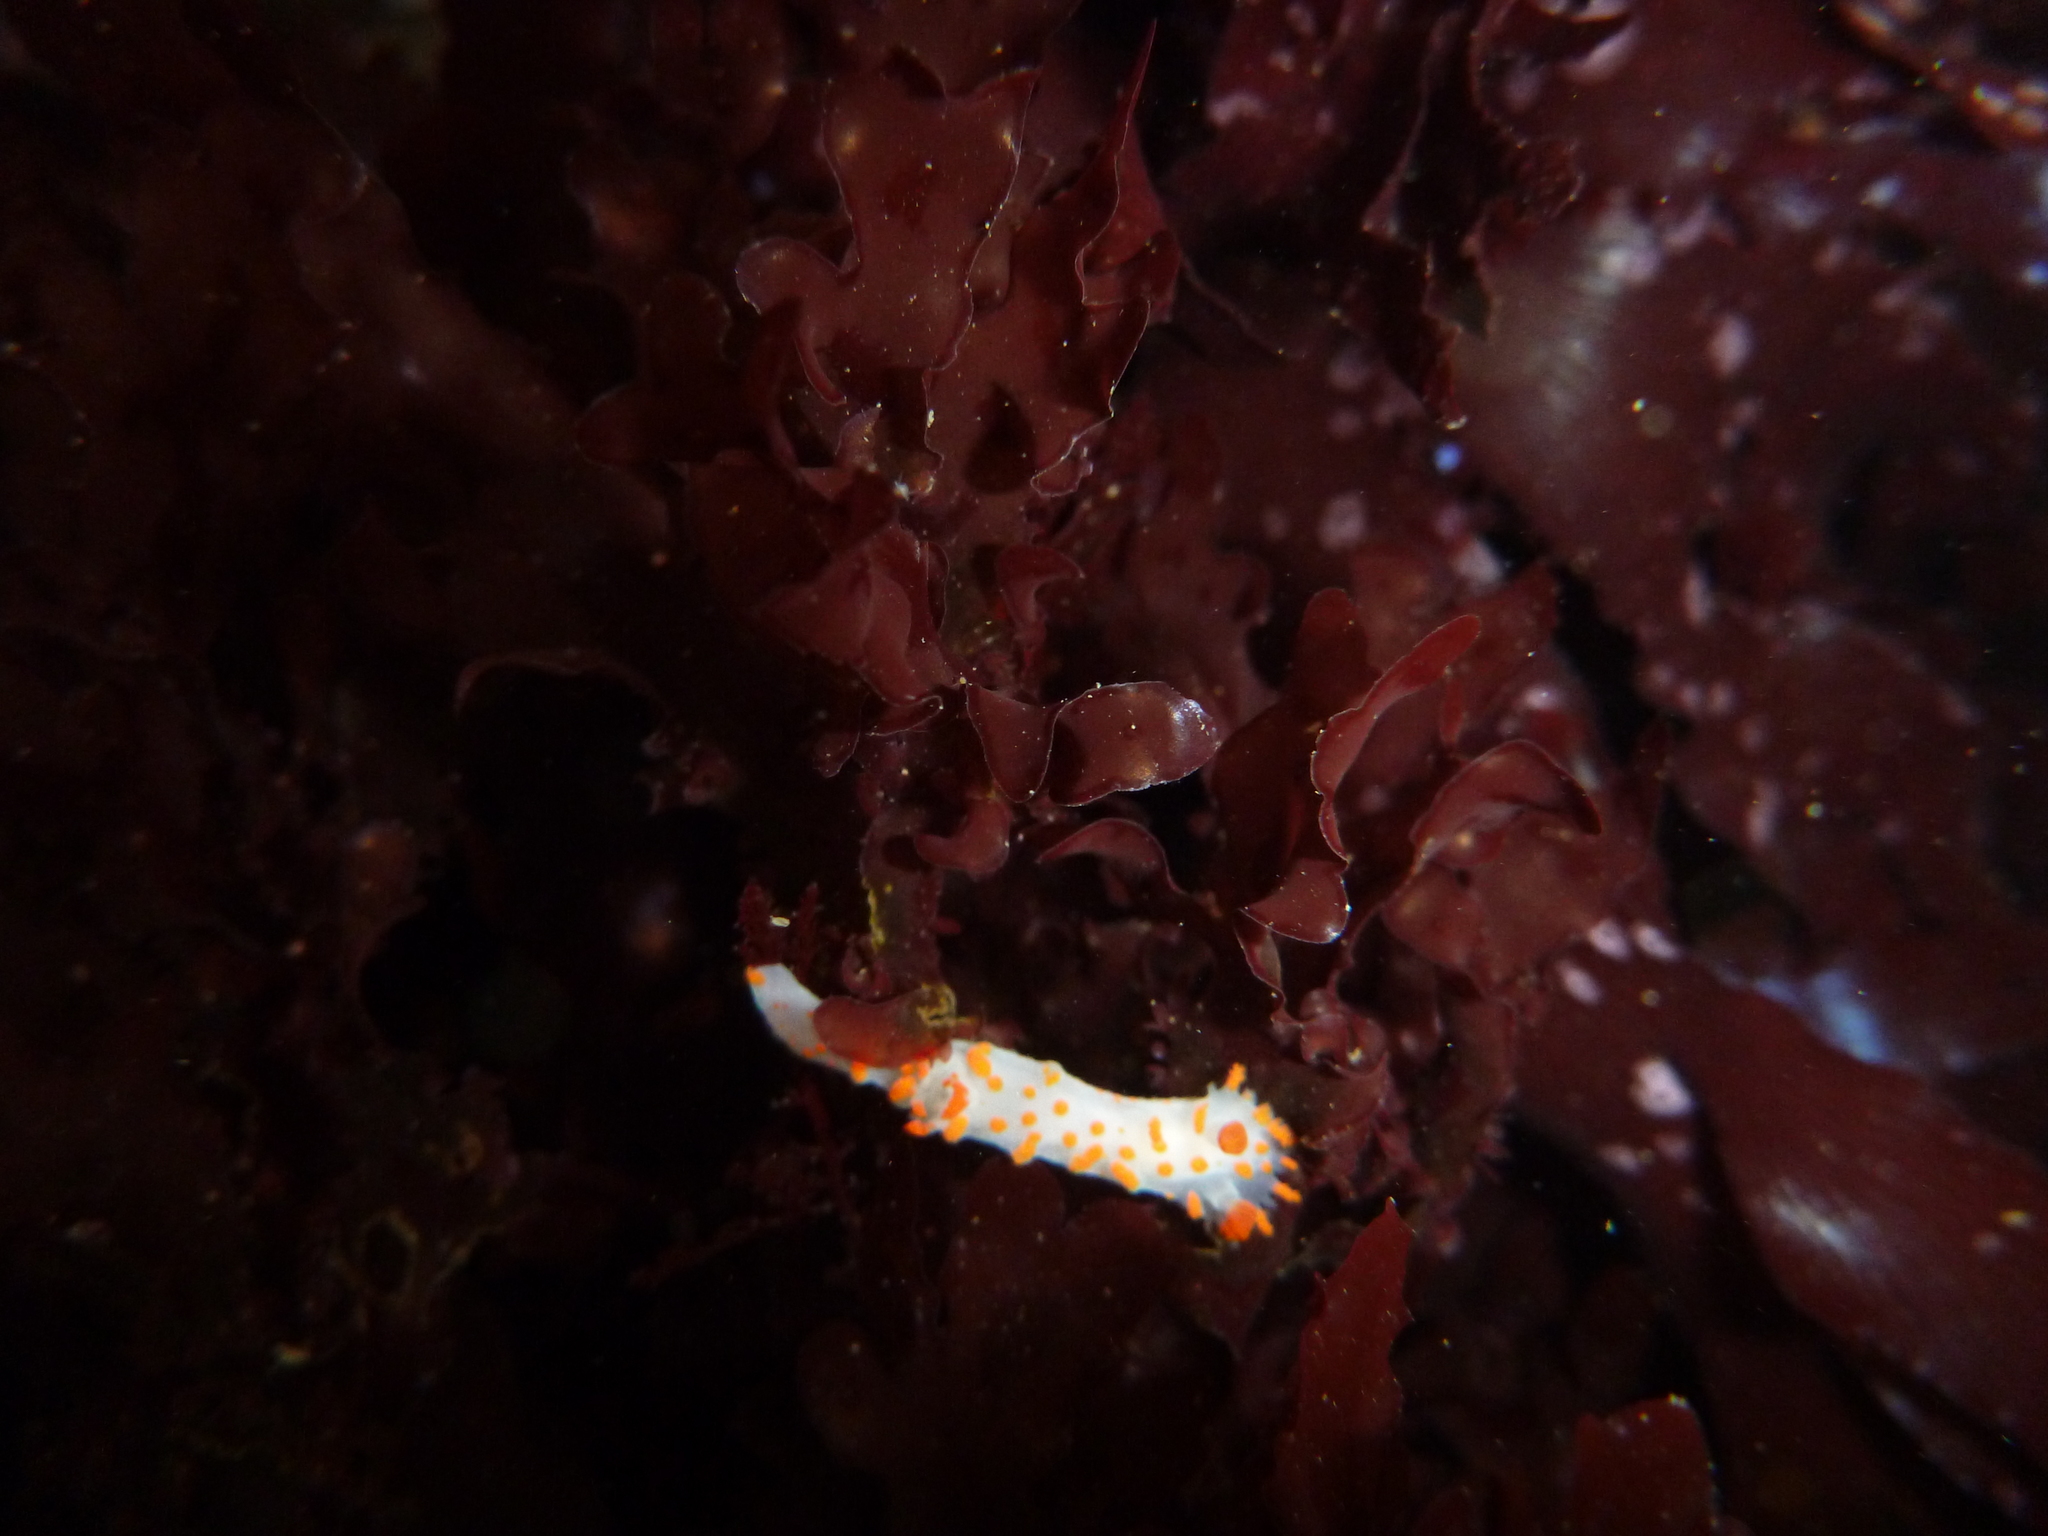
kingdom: Animalia
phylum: Mollusca
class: Gastropoda
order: Nudibranchia
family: Polyceridae
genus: Triopha
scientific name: Triopha catalinae
